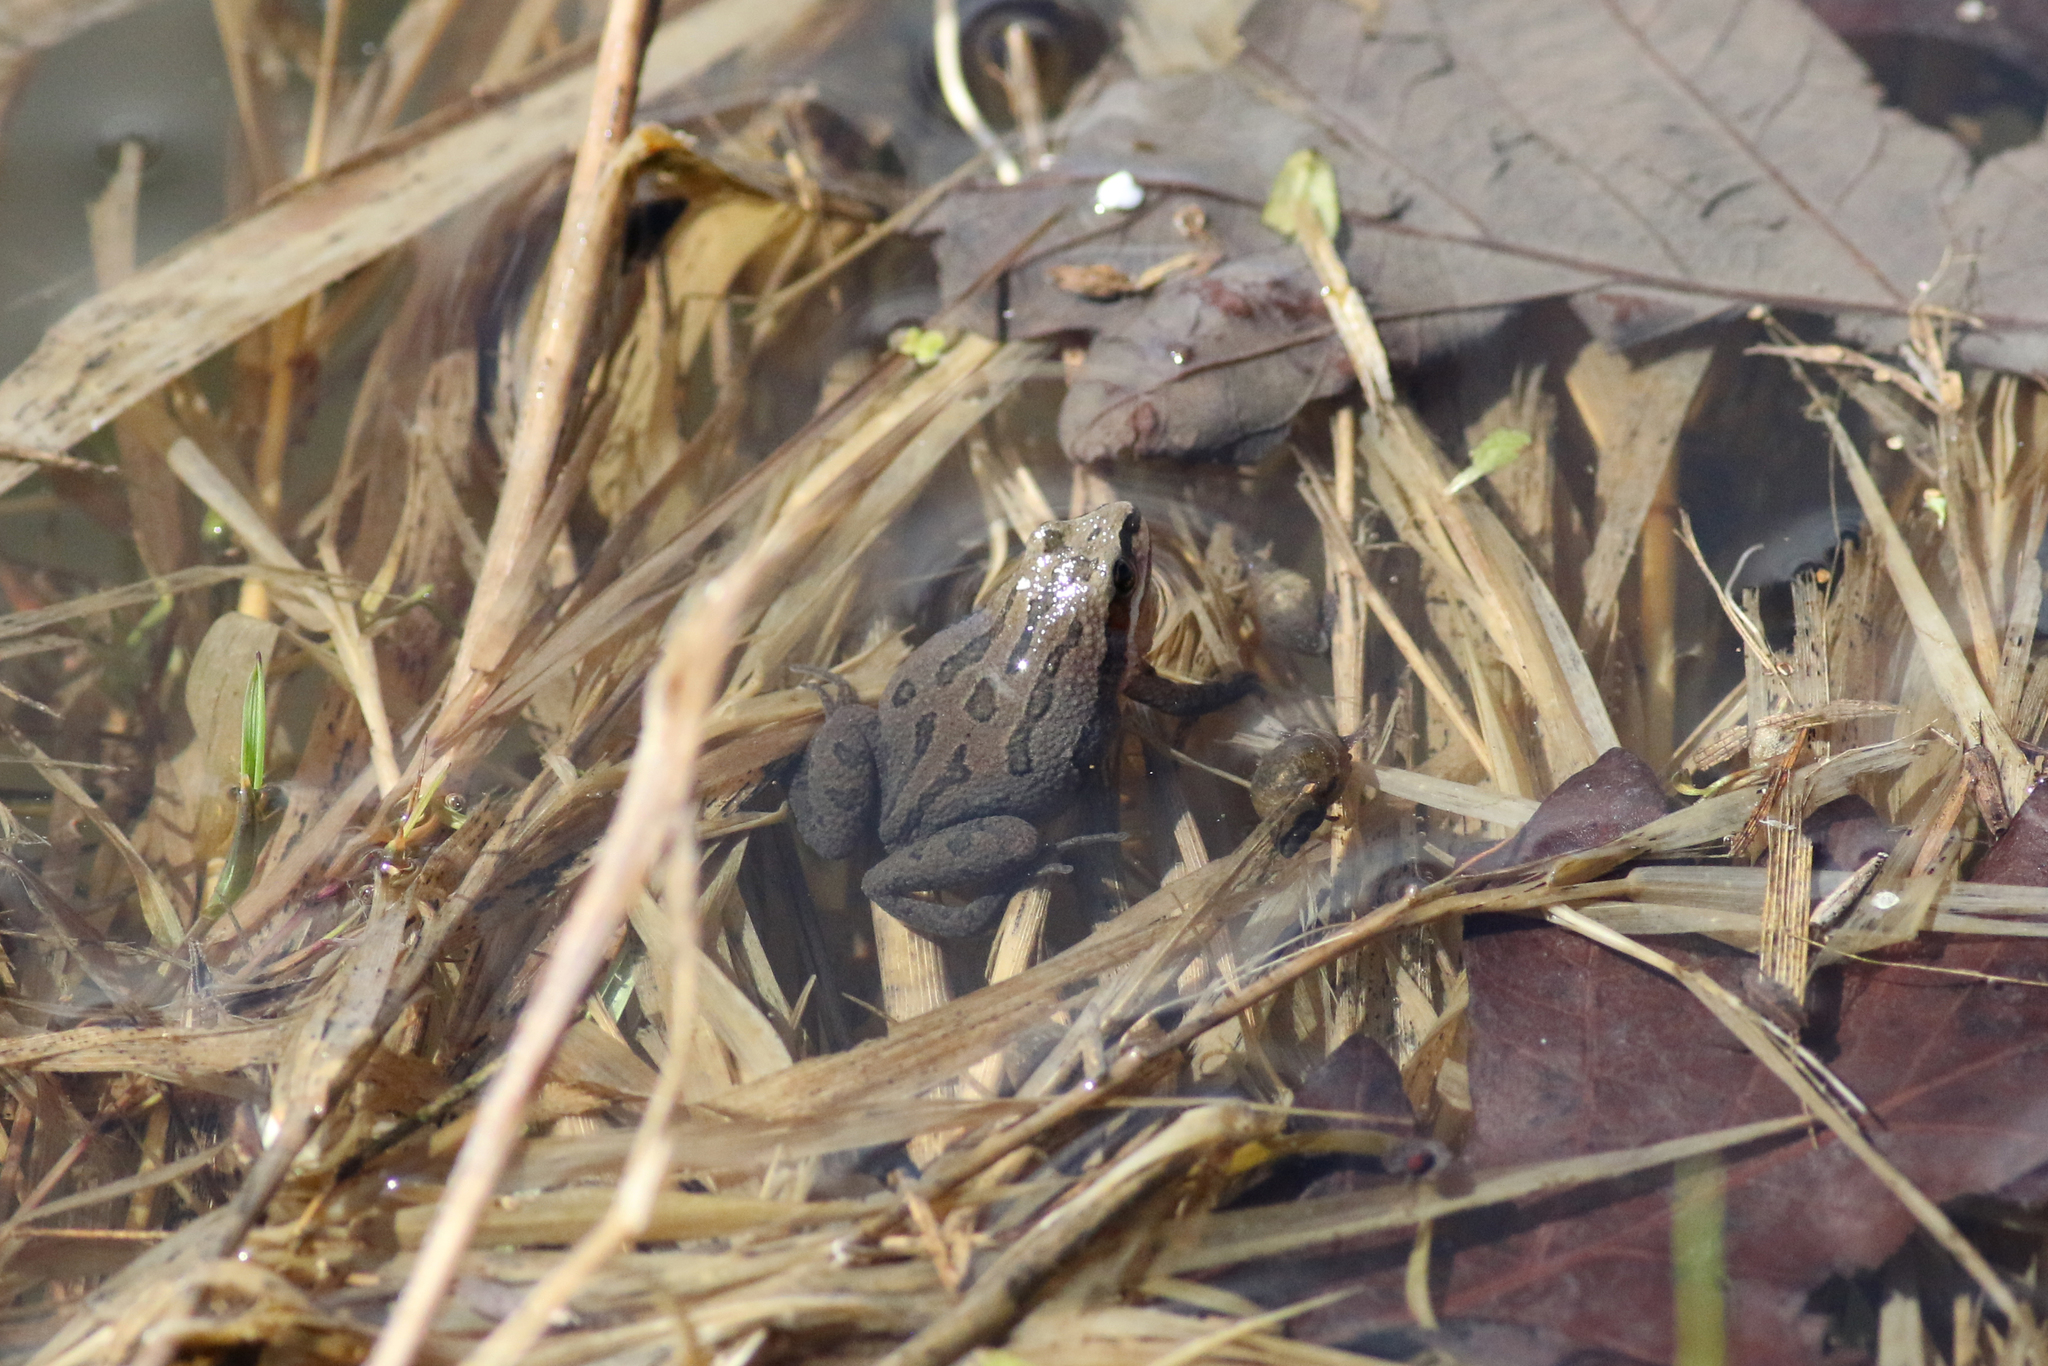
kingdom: Animalia
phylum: Chordata
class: Amphibia
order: Anura
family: Hylidae
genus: Pseudacris
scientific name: Pseudacris triseriata
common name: Western chorus frog
